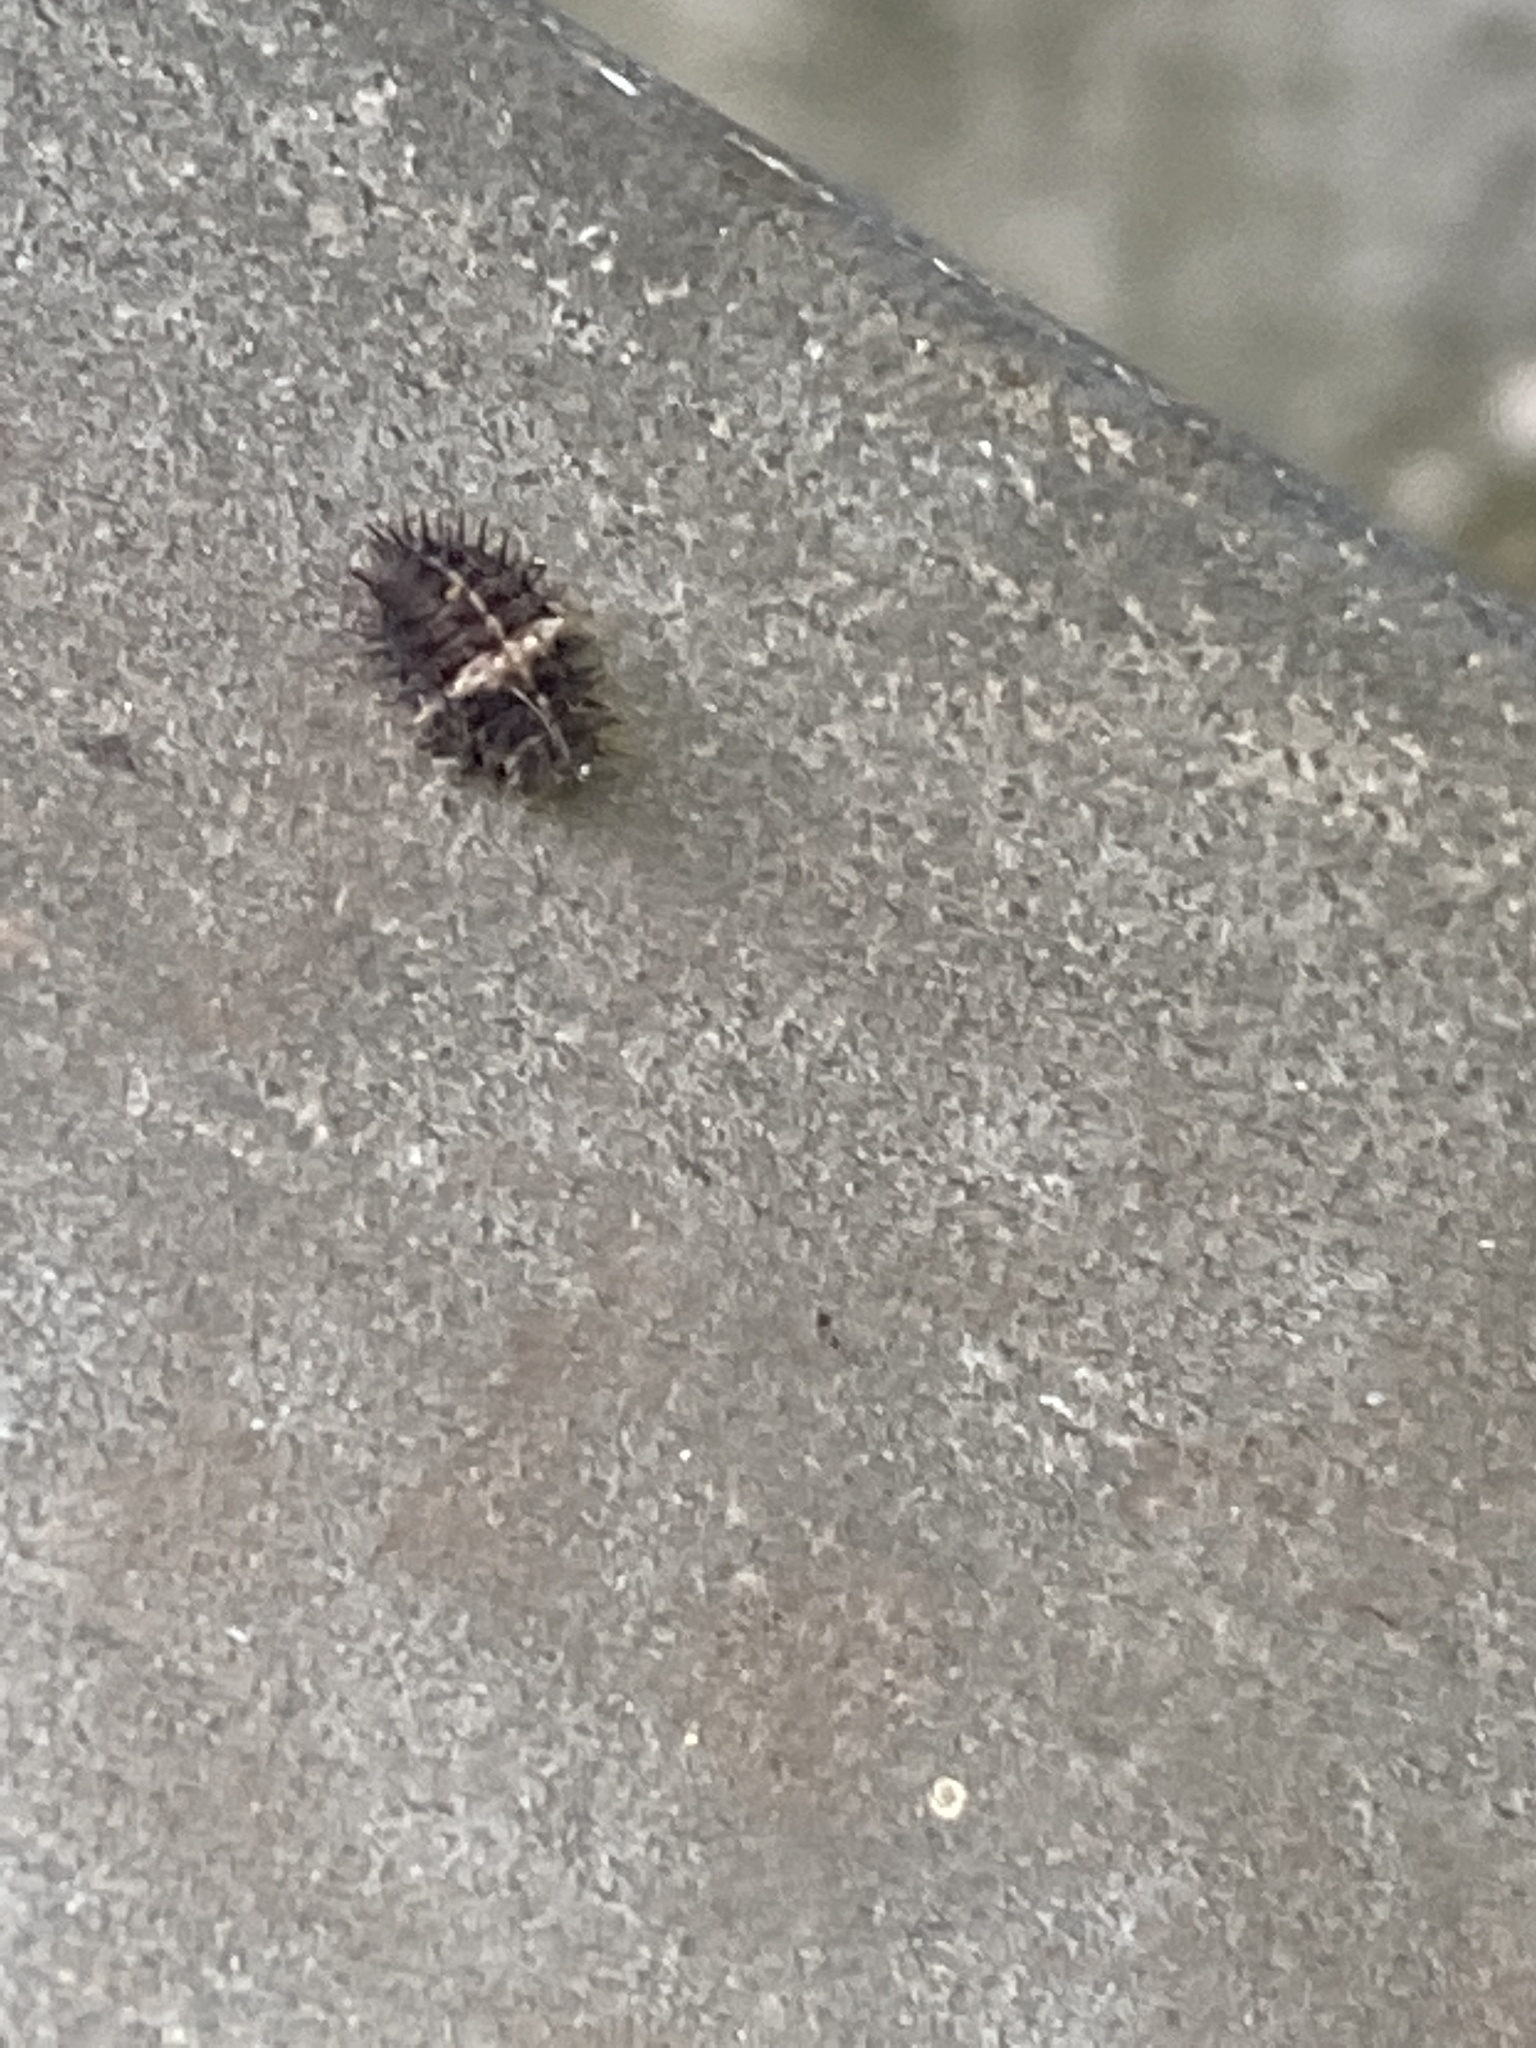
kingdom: Animalia
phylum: Arthropoda
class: Insecta
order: Coleoptera
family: Coccinellidae
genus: Chilocorus
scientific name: Chilocorus bipustulatus
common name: Heather ladybird
